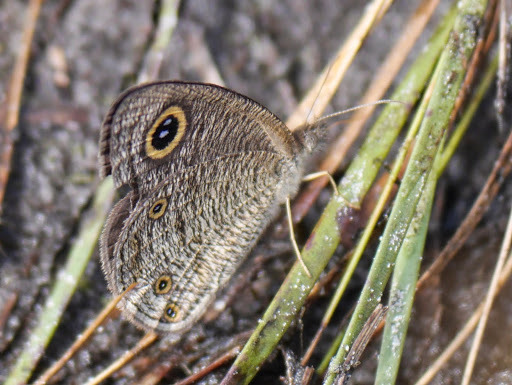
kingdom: Animalia
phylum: Arthropoda
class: Insecta
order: Lepidoptera
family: Nymphalidae
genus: Ypthima
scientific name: Ypthima doleta
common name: Common ringlet
